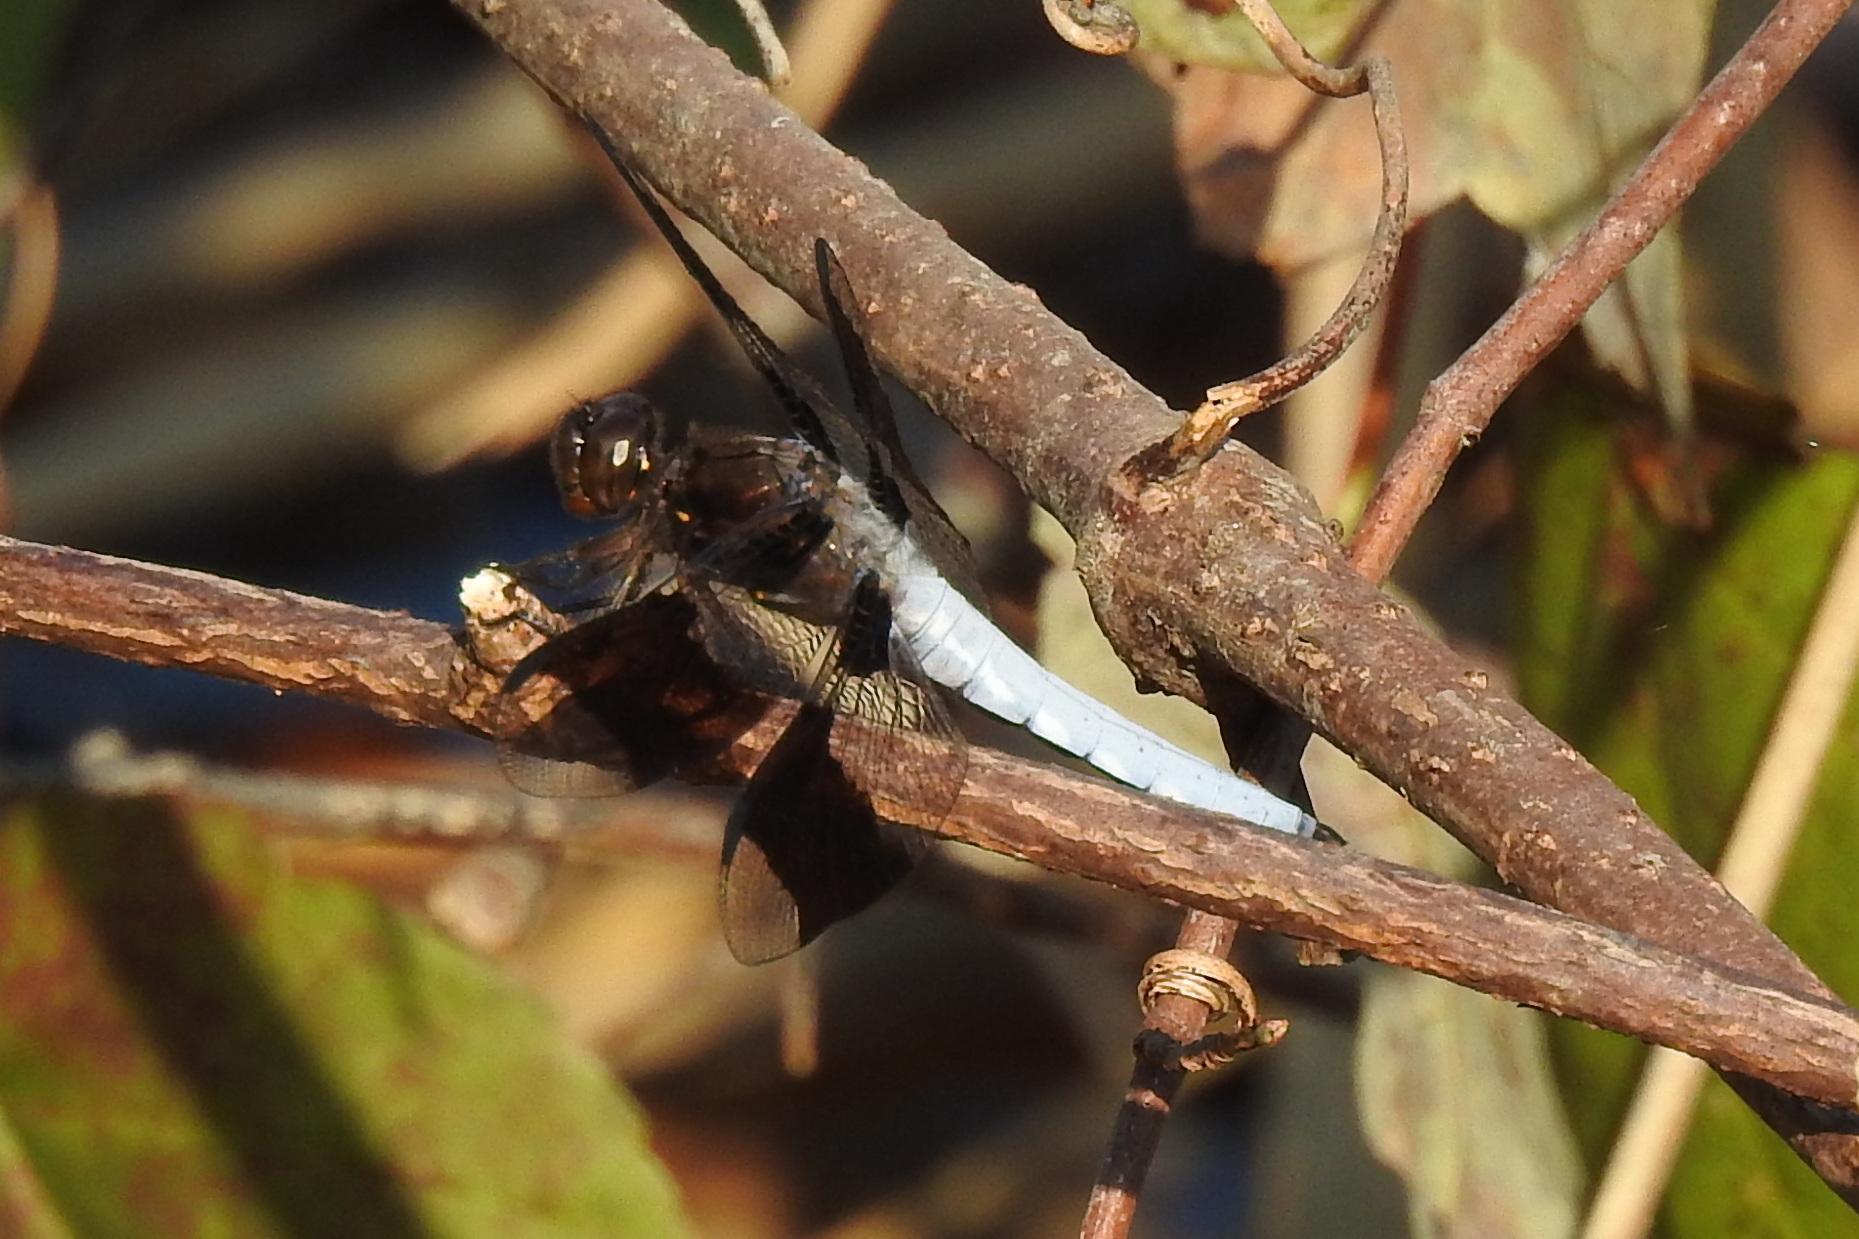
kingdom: Animalia
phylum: Arthropoda
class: Insecta
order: Odonata
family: Libellulidae
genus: Plathemis
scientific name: Plathemis lydia
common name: Common whitetail
